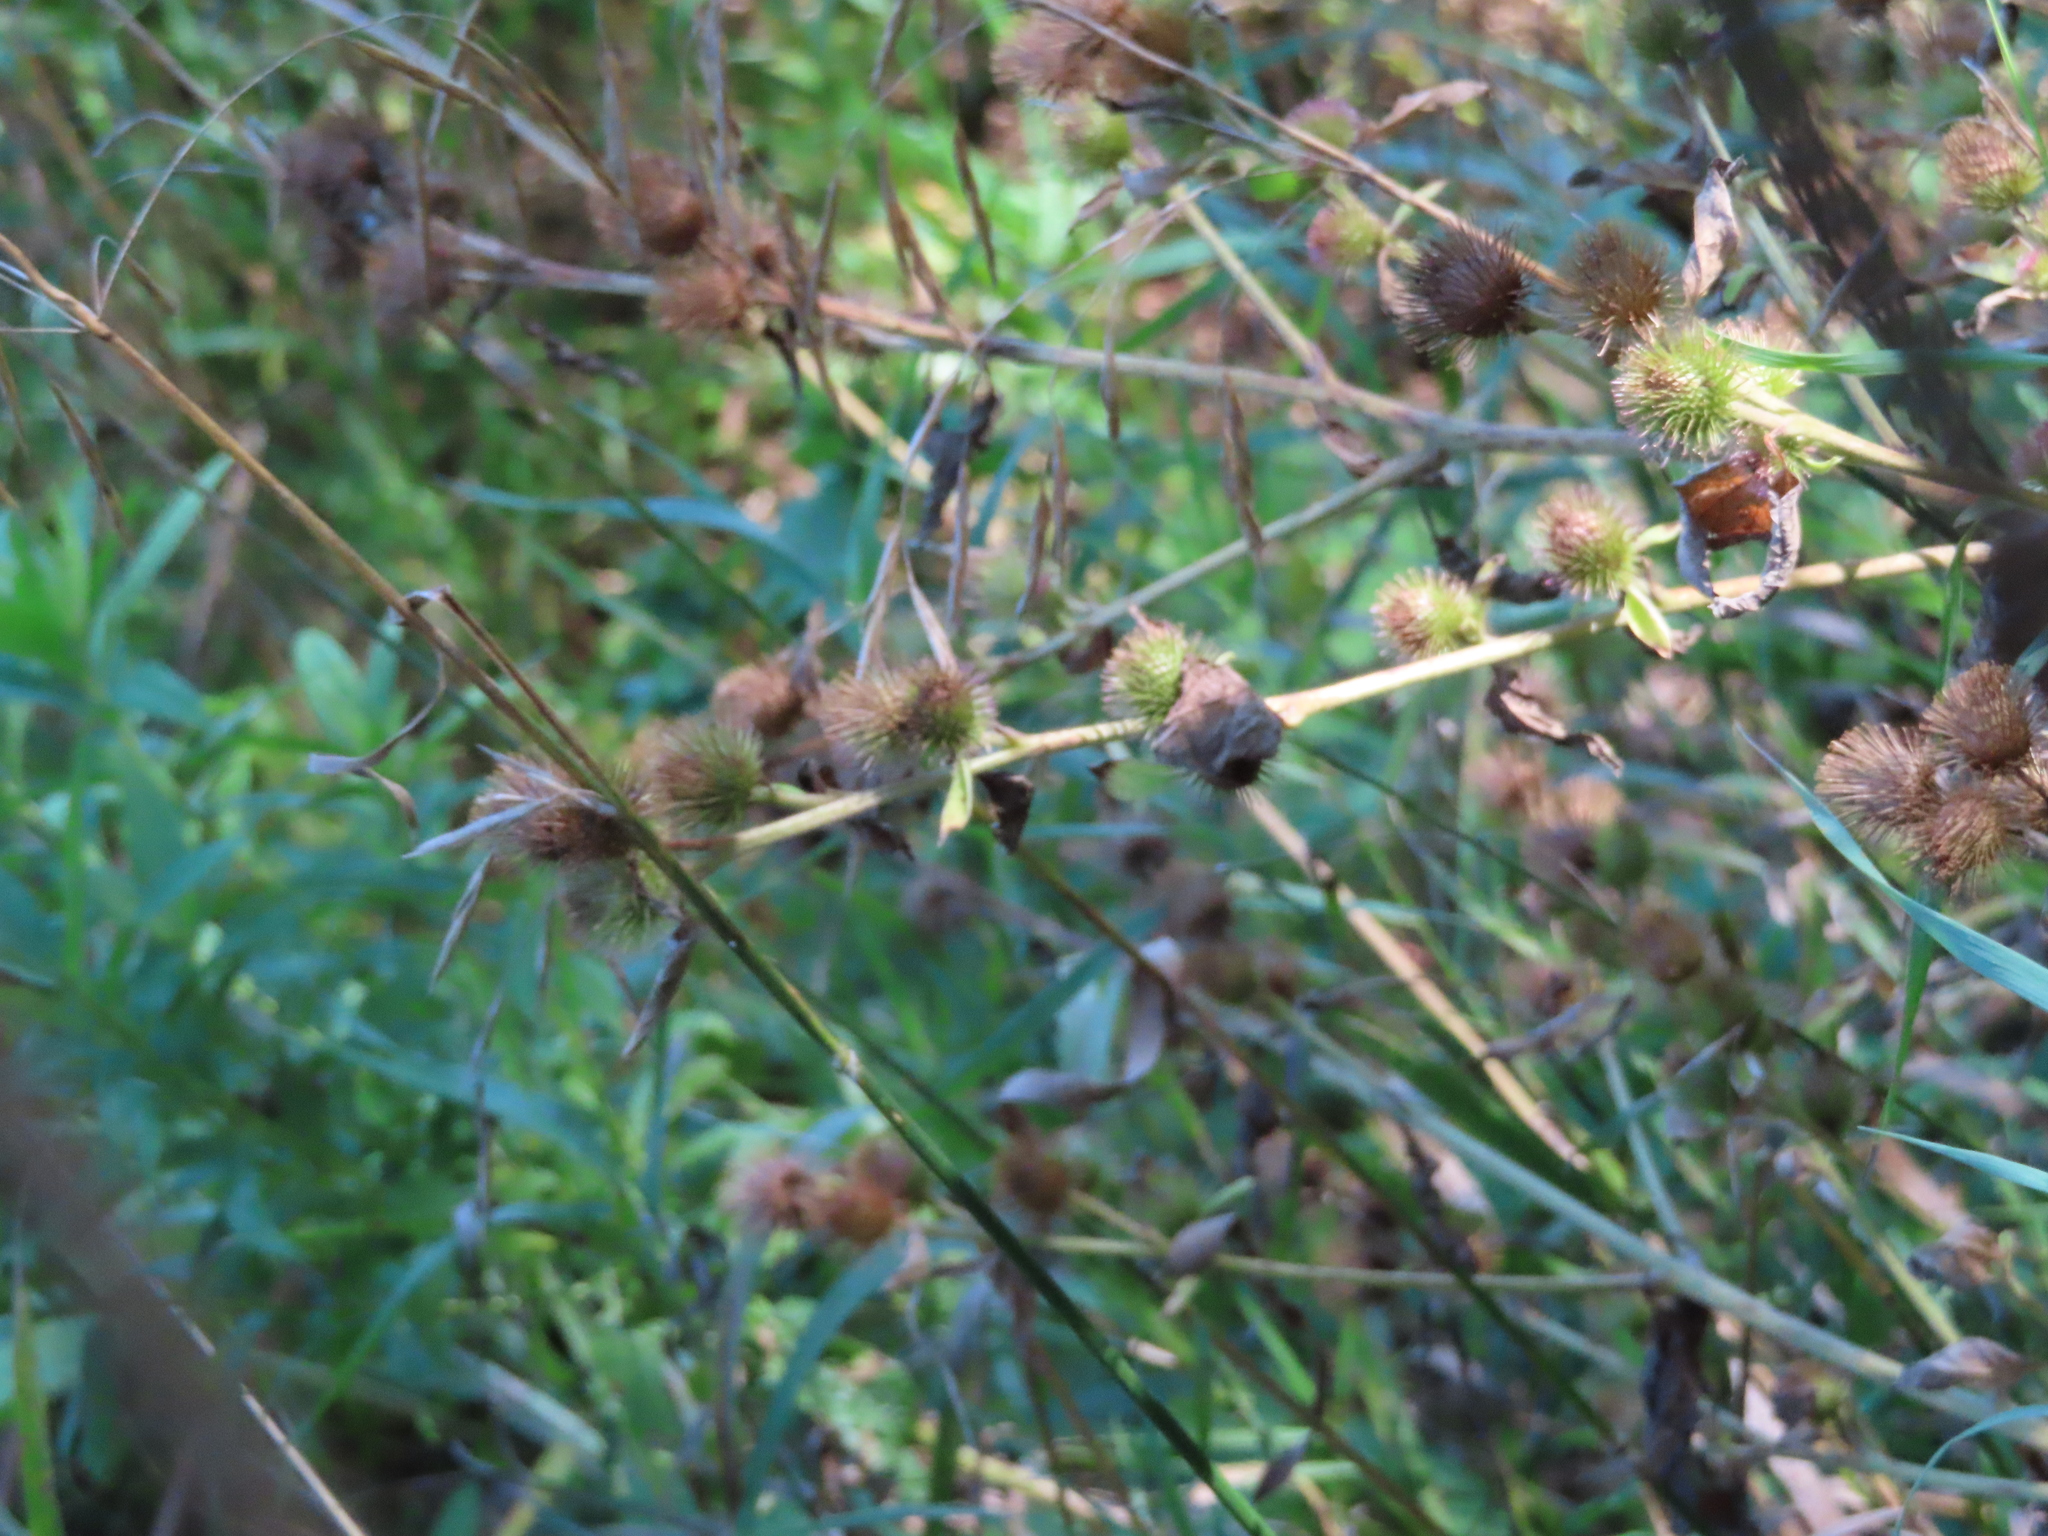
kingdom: Plantae
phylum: Tracheophyta
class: Magnoliopsida
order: Asterales
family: Asteraceae
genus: Arctium
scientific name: Arctium minus
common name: Lesser burdock
